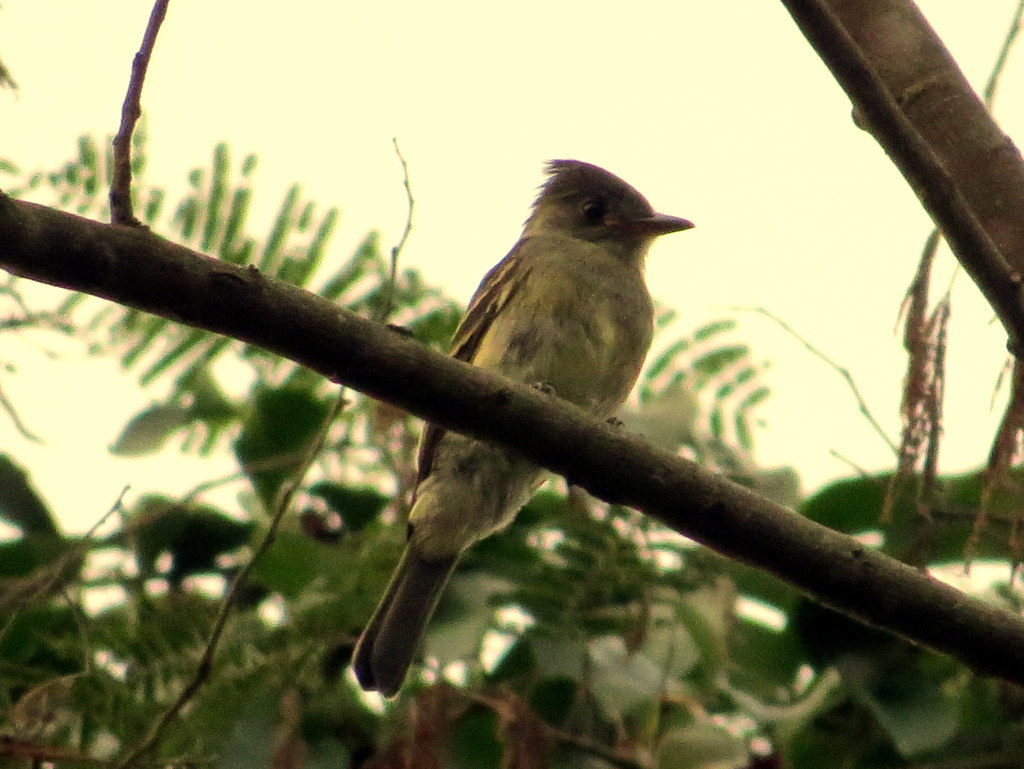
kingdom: Animalia
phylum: Chordata
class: Aves
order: Passeriformes
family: Tyrannidae
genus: Contopus
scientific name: Contopus fumigatus
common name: Smoke-colored pewee
